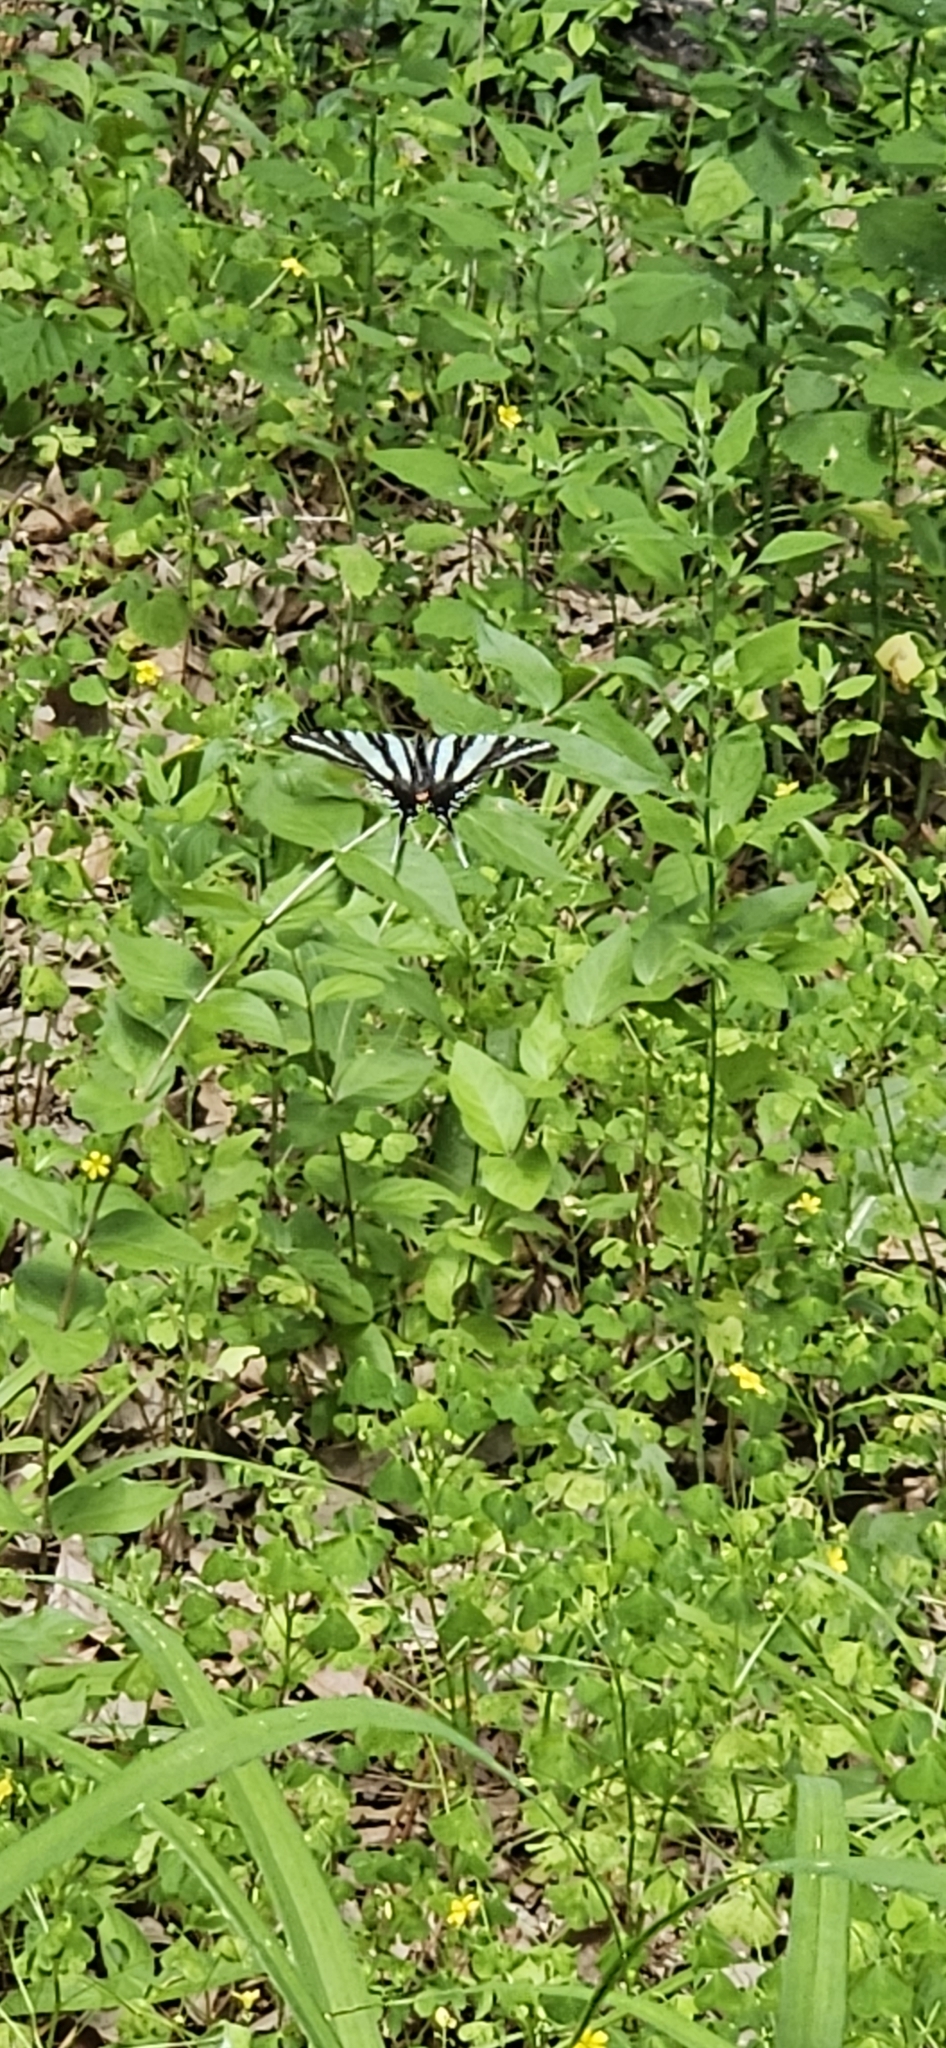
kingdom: Animalia
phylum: Arthropoda
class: Insecta
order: Lepidoptera
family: Papilionidae
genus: Protographium
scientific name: Protographium marcellus
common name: Zebra swallowtail
